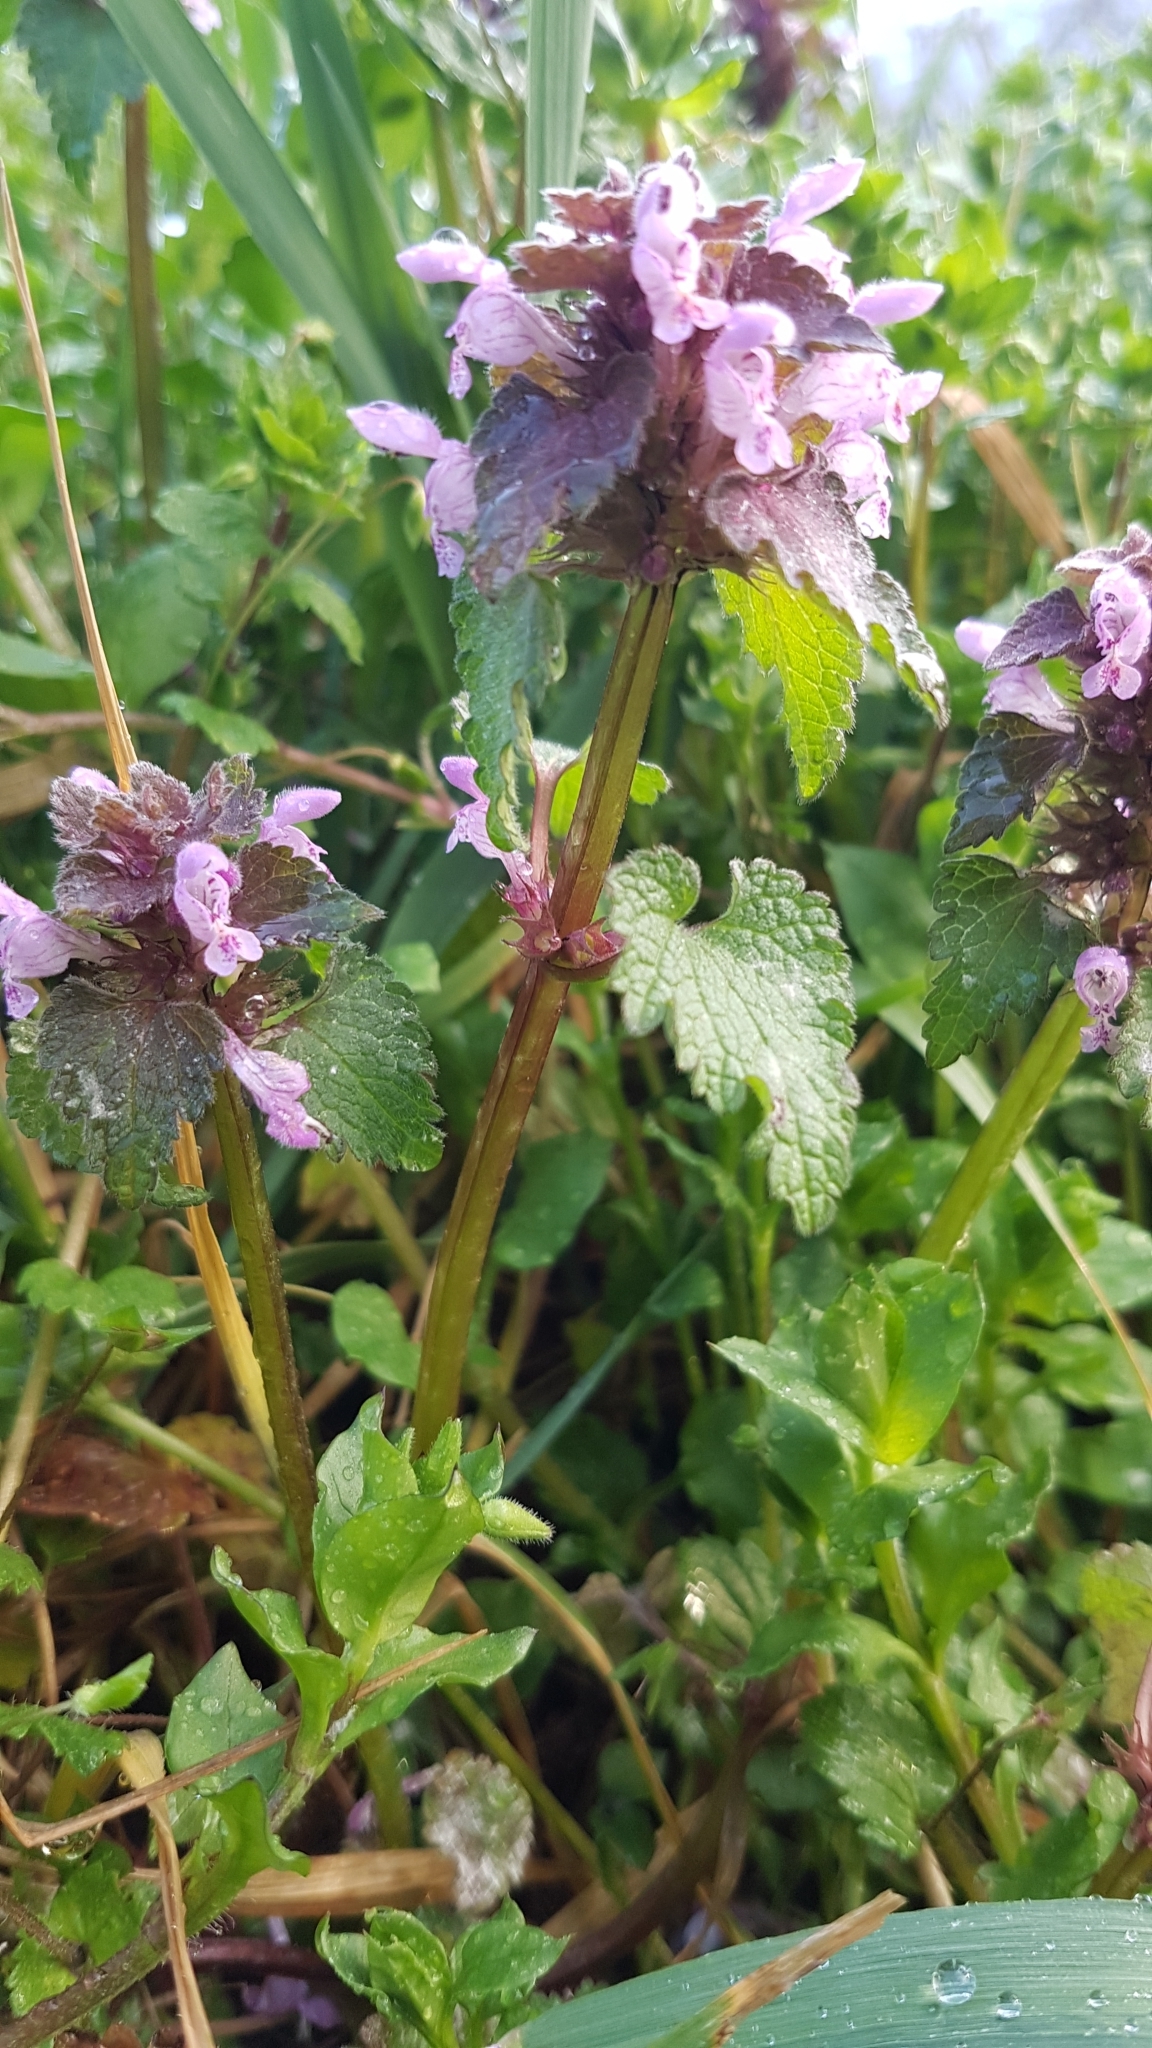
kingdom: Plantae
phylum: Tracheophyta
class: Magnoliopsida
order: Lamiales
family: Lamiaceae
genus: Lamium
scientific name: Lamium purpureum
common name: Red dead-nettle
